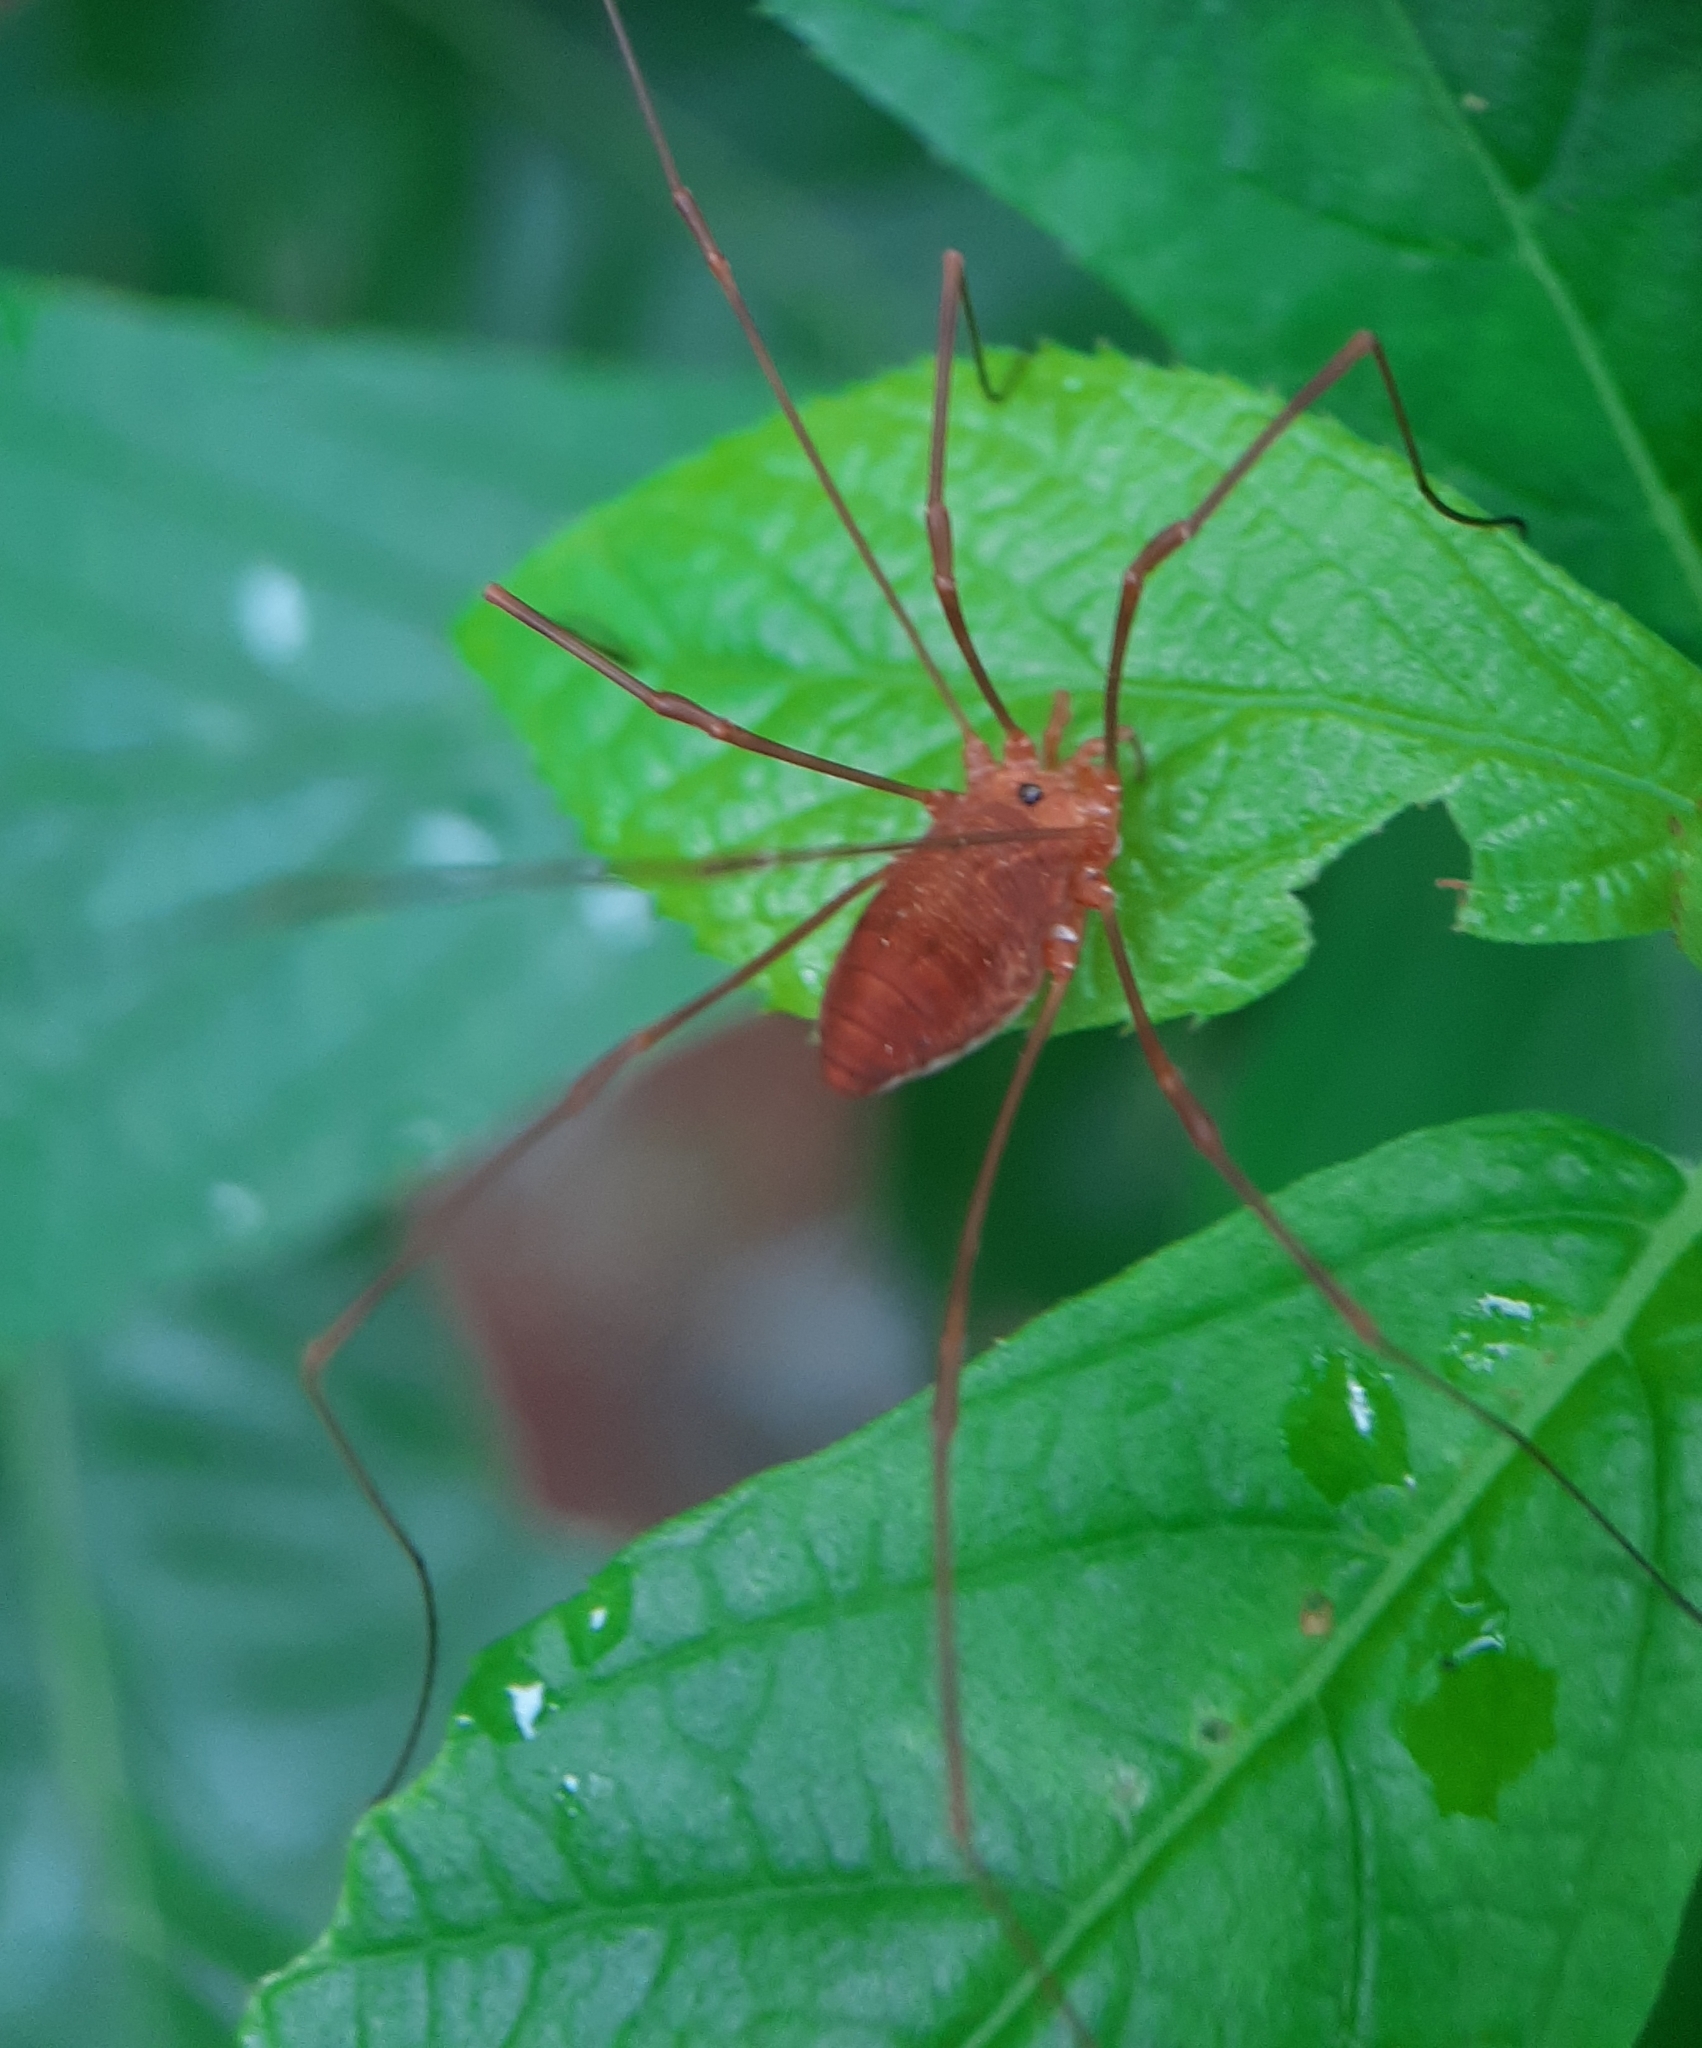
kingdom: Animalia
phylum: Arthropoda
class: Arachnida
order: Opiliones
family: Sclerosomatidae
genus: Leiobunum
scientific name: Leiobunum ventricosum
